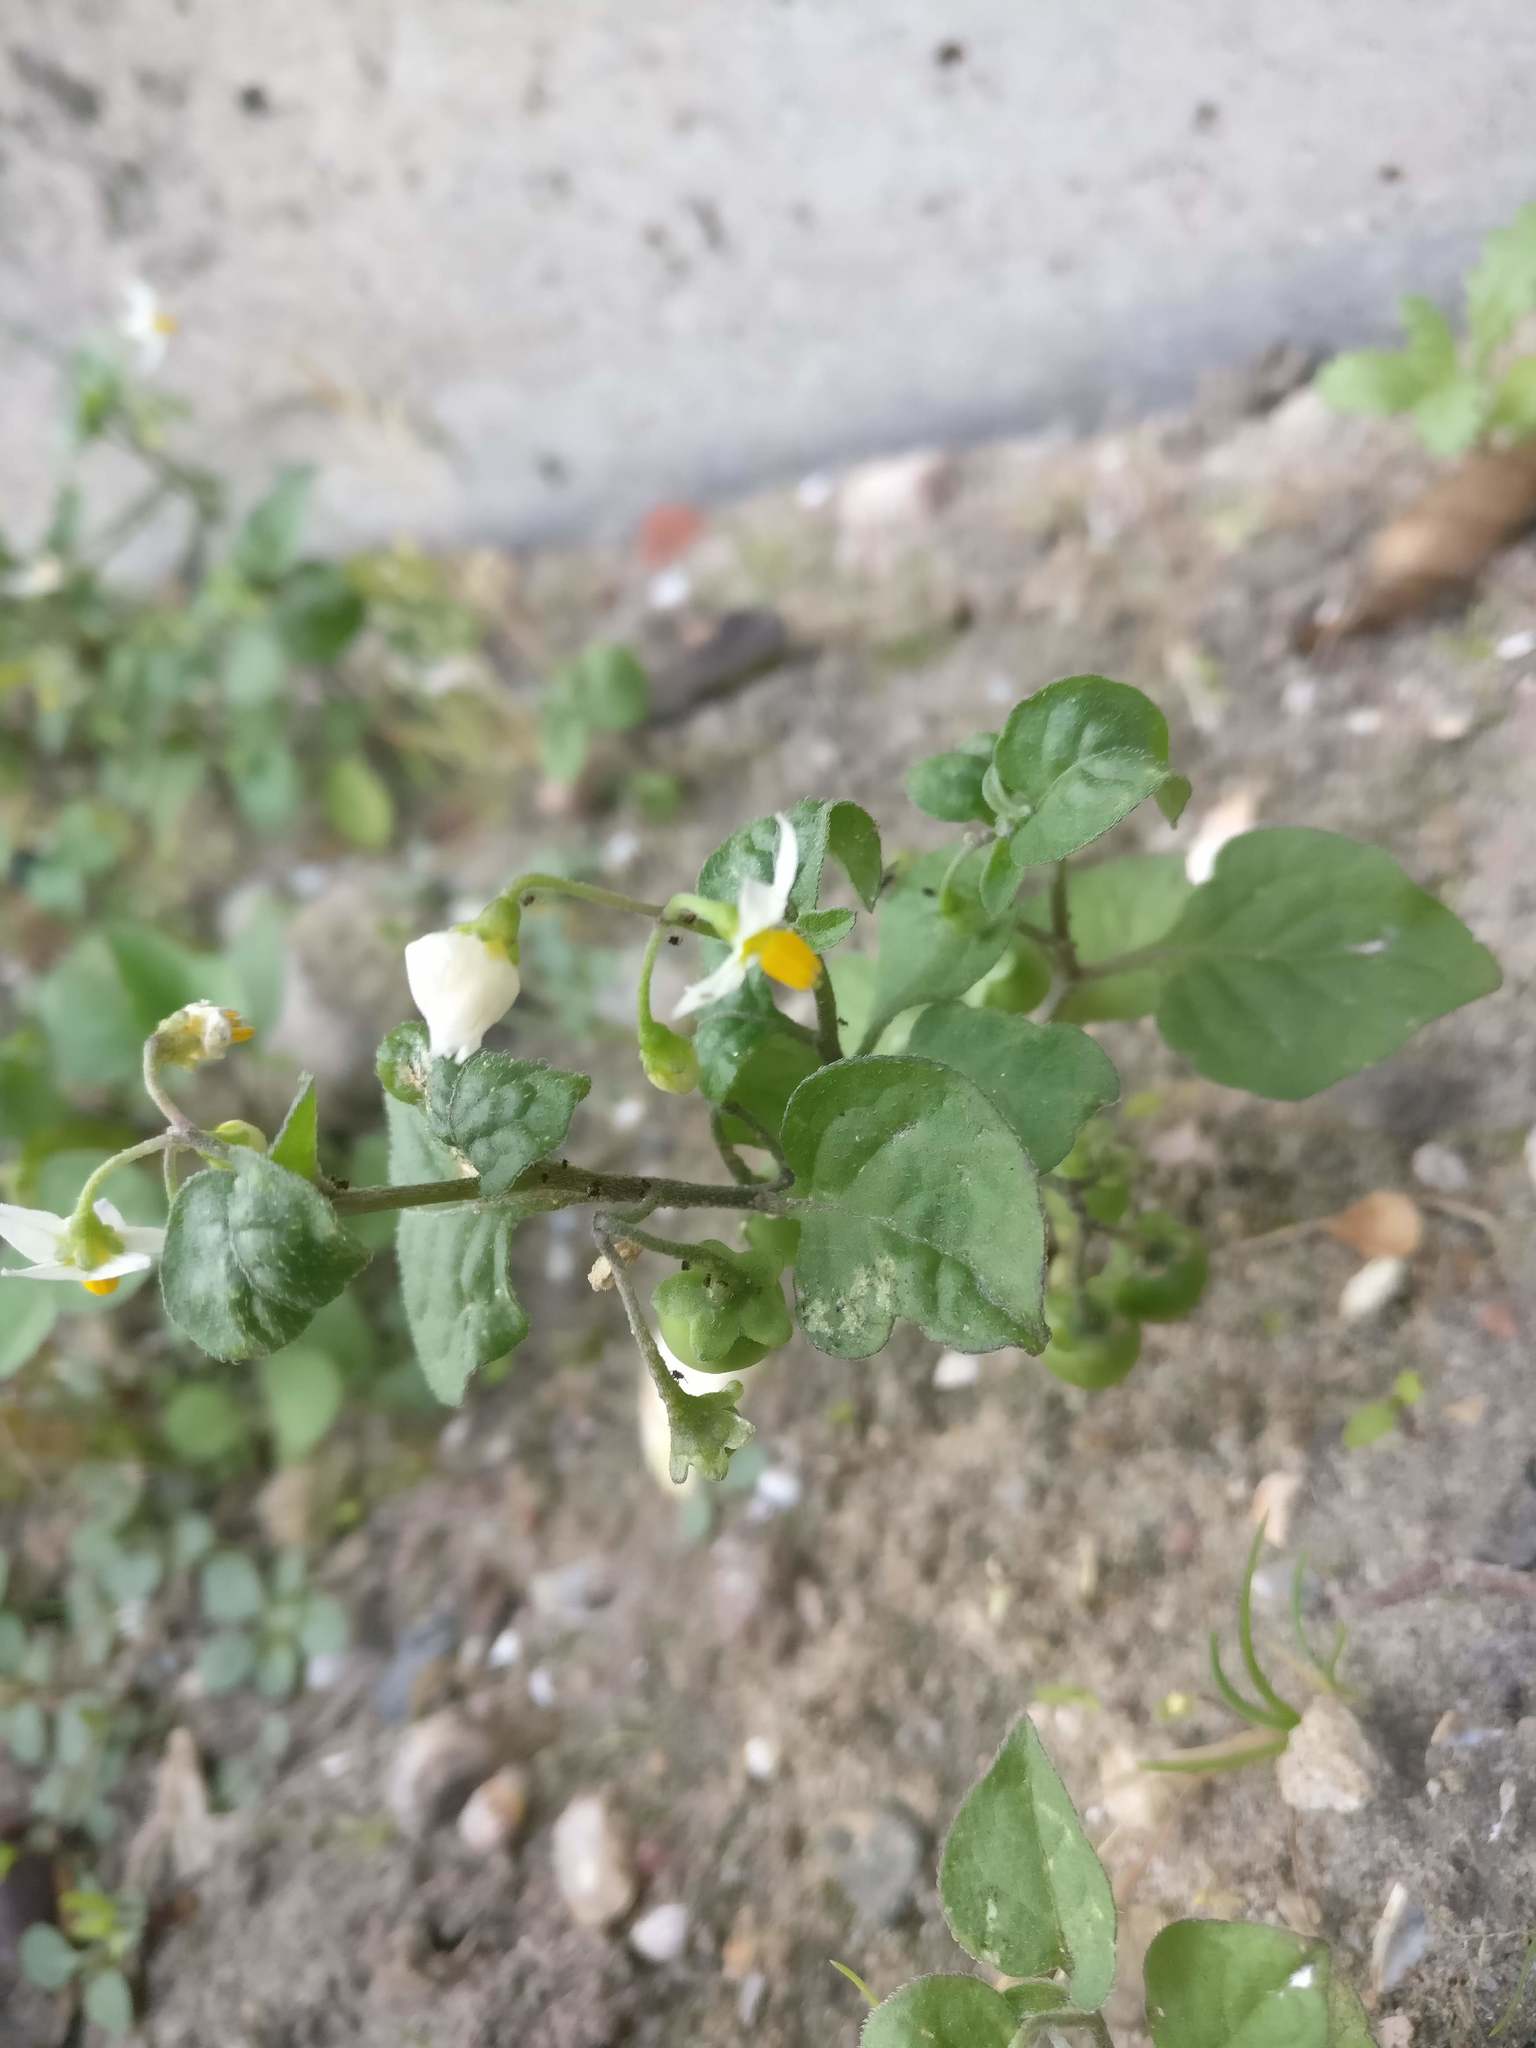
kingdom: Plantae
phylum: Tracheophyta
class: Magnoliopsida
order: Solanales
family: Solanaceae
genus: Solanum
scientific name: Solanum nigrum
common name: Black nightshade
